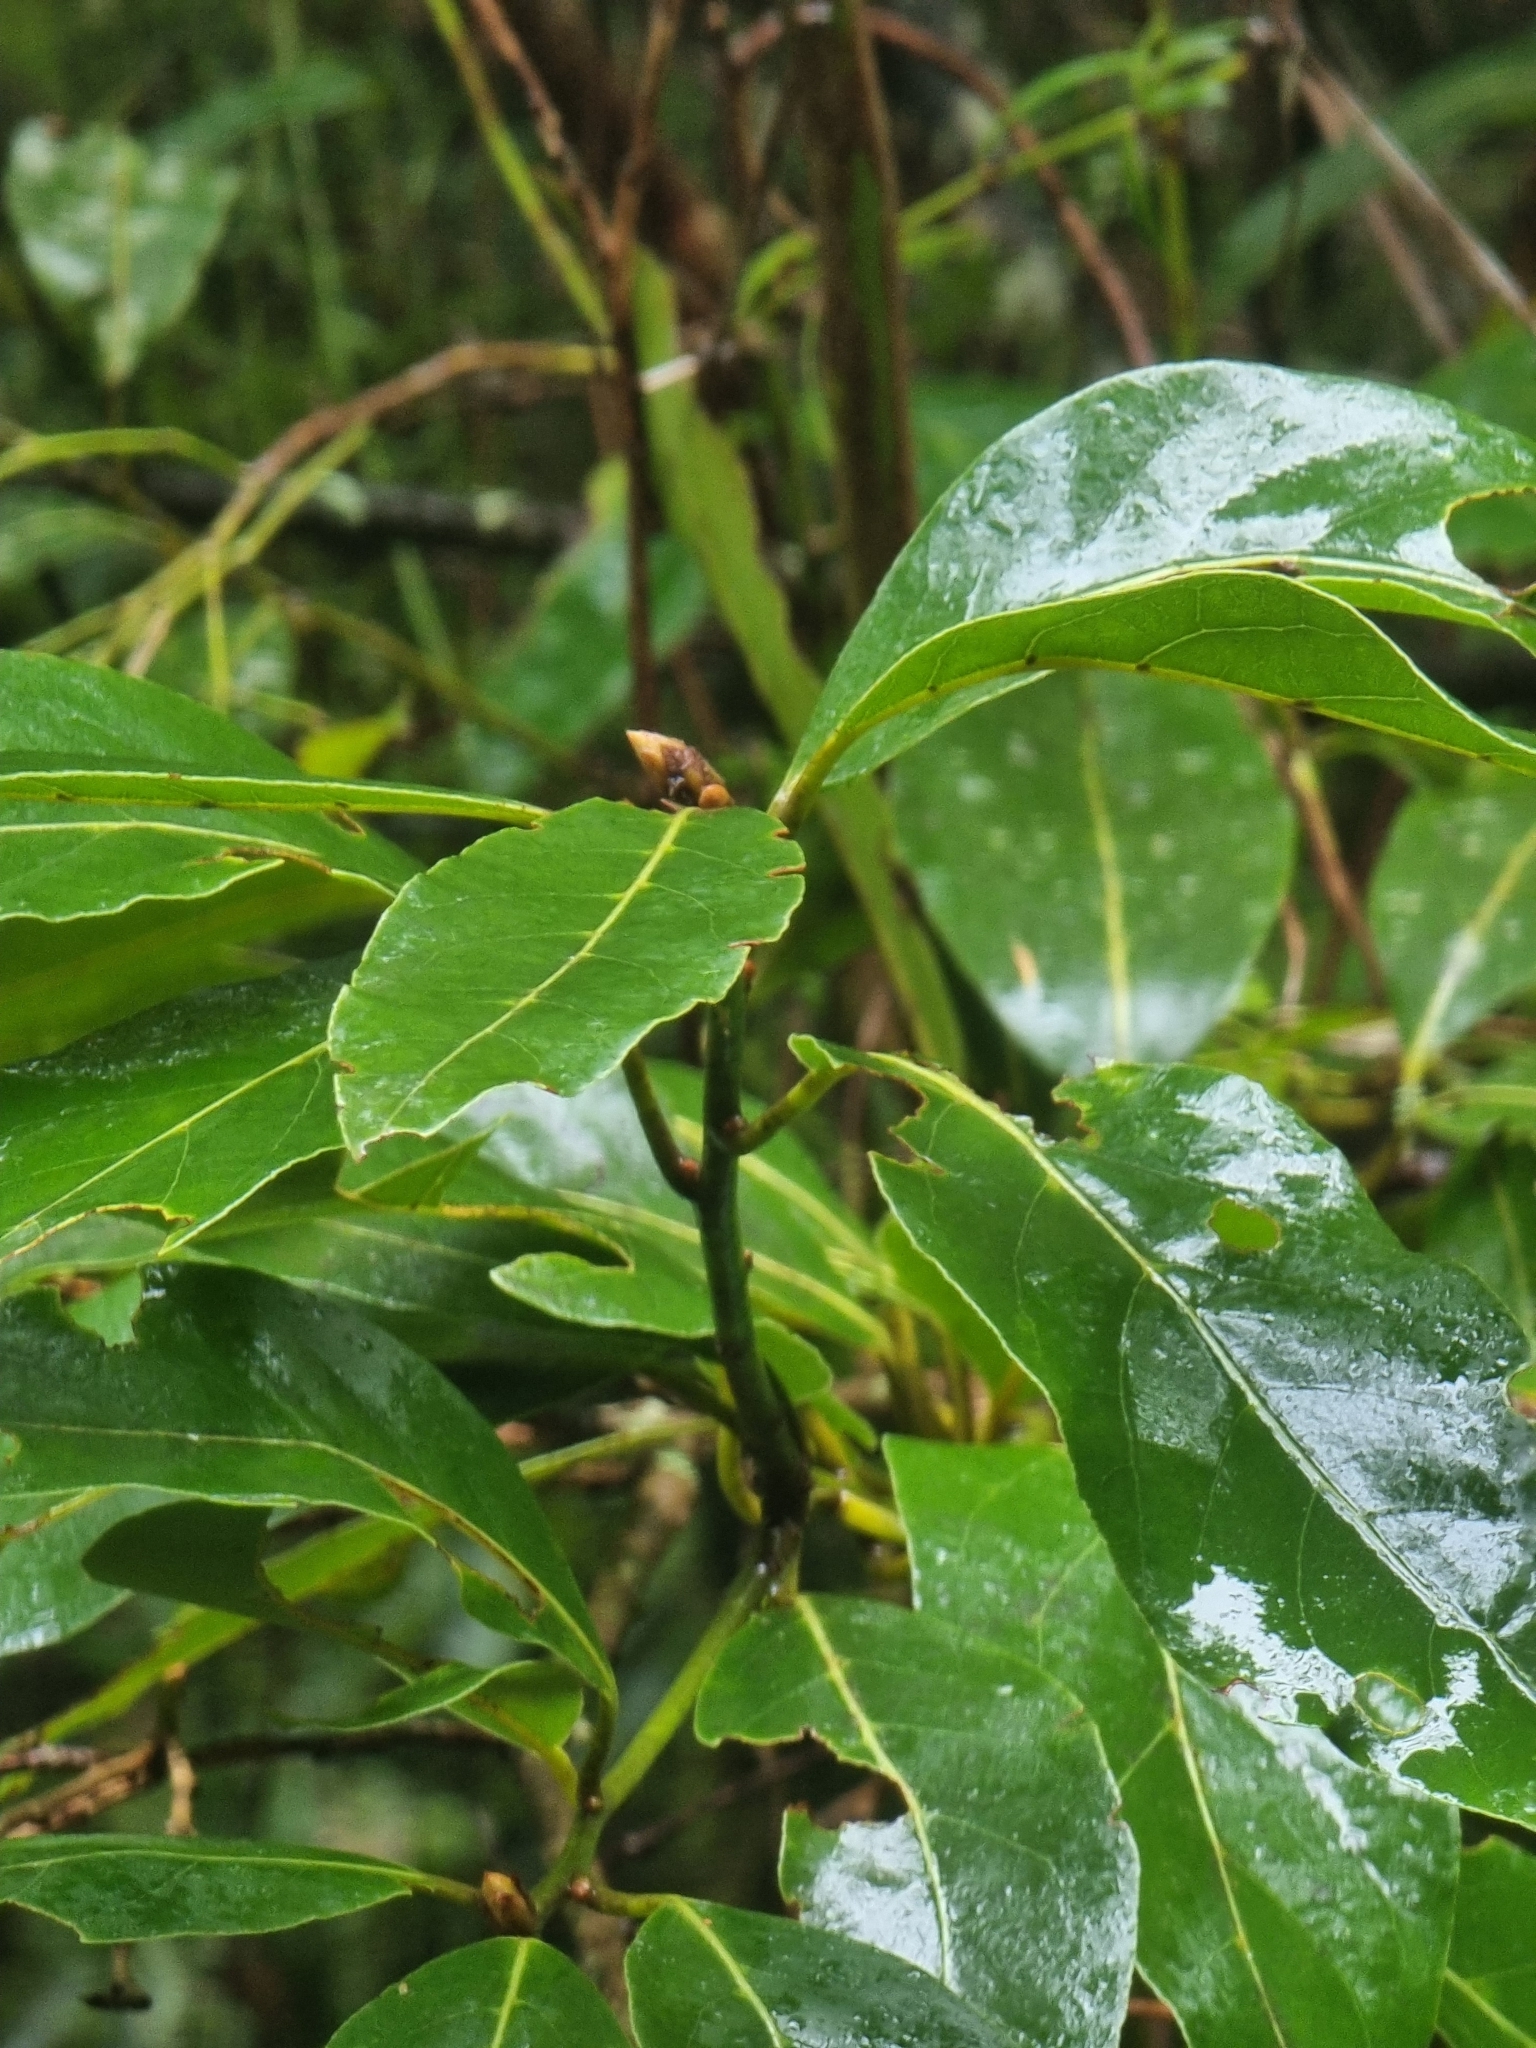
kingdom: Plantae
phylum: Tracheophyta
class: Magnoliopsida
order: Laurales
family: Lauraceae
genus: Laurus
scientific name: Laurus novocanariensis
